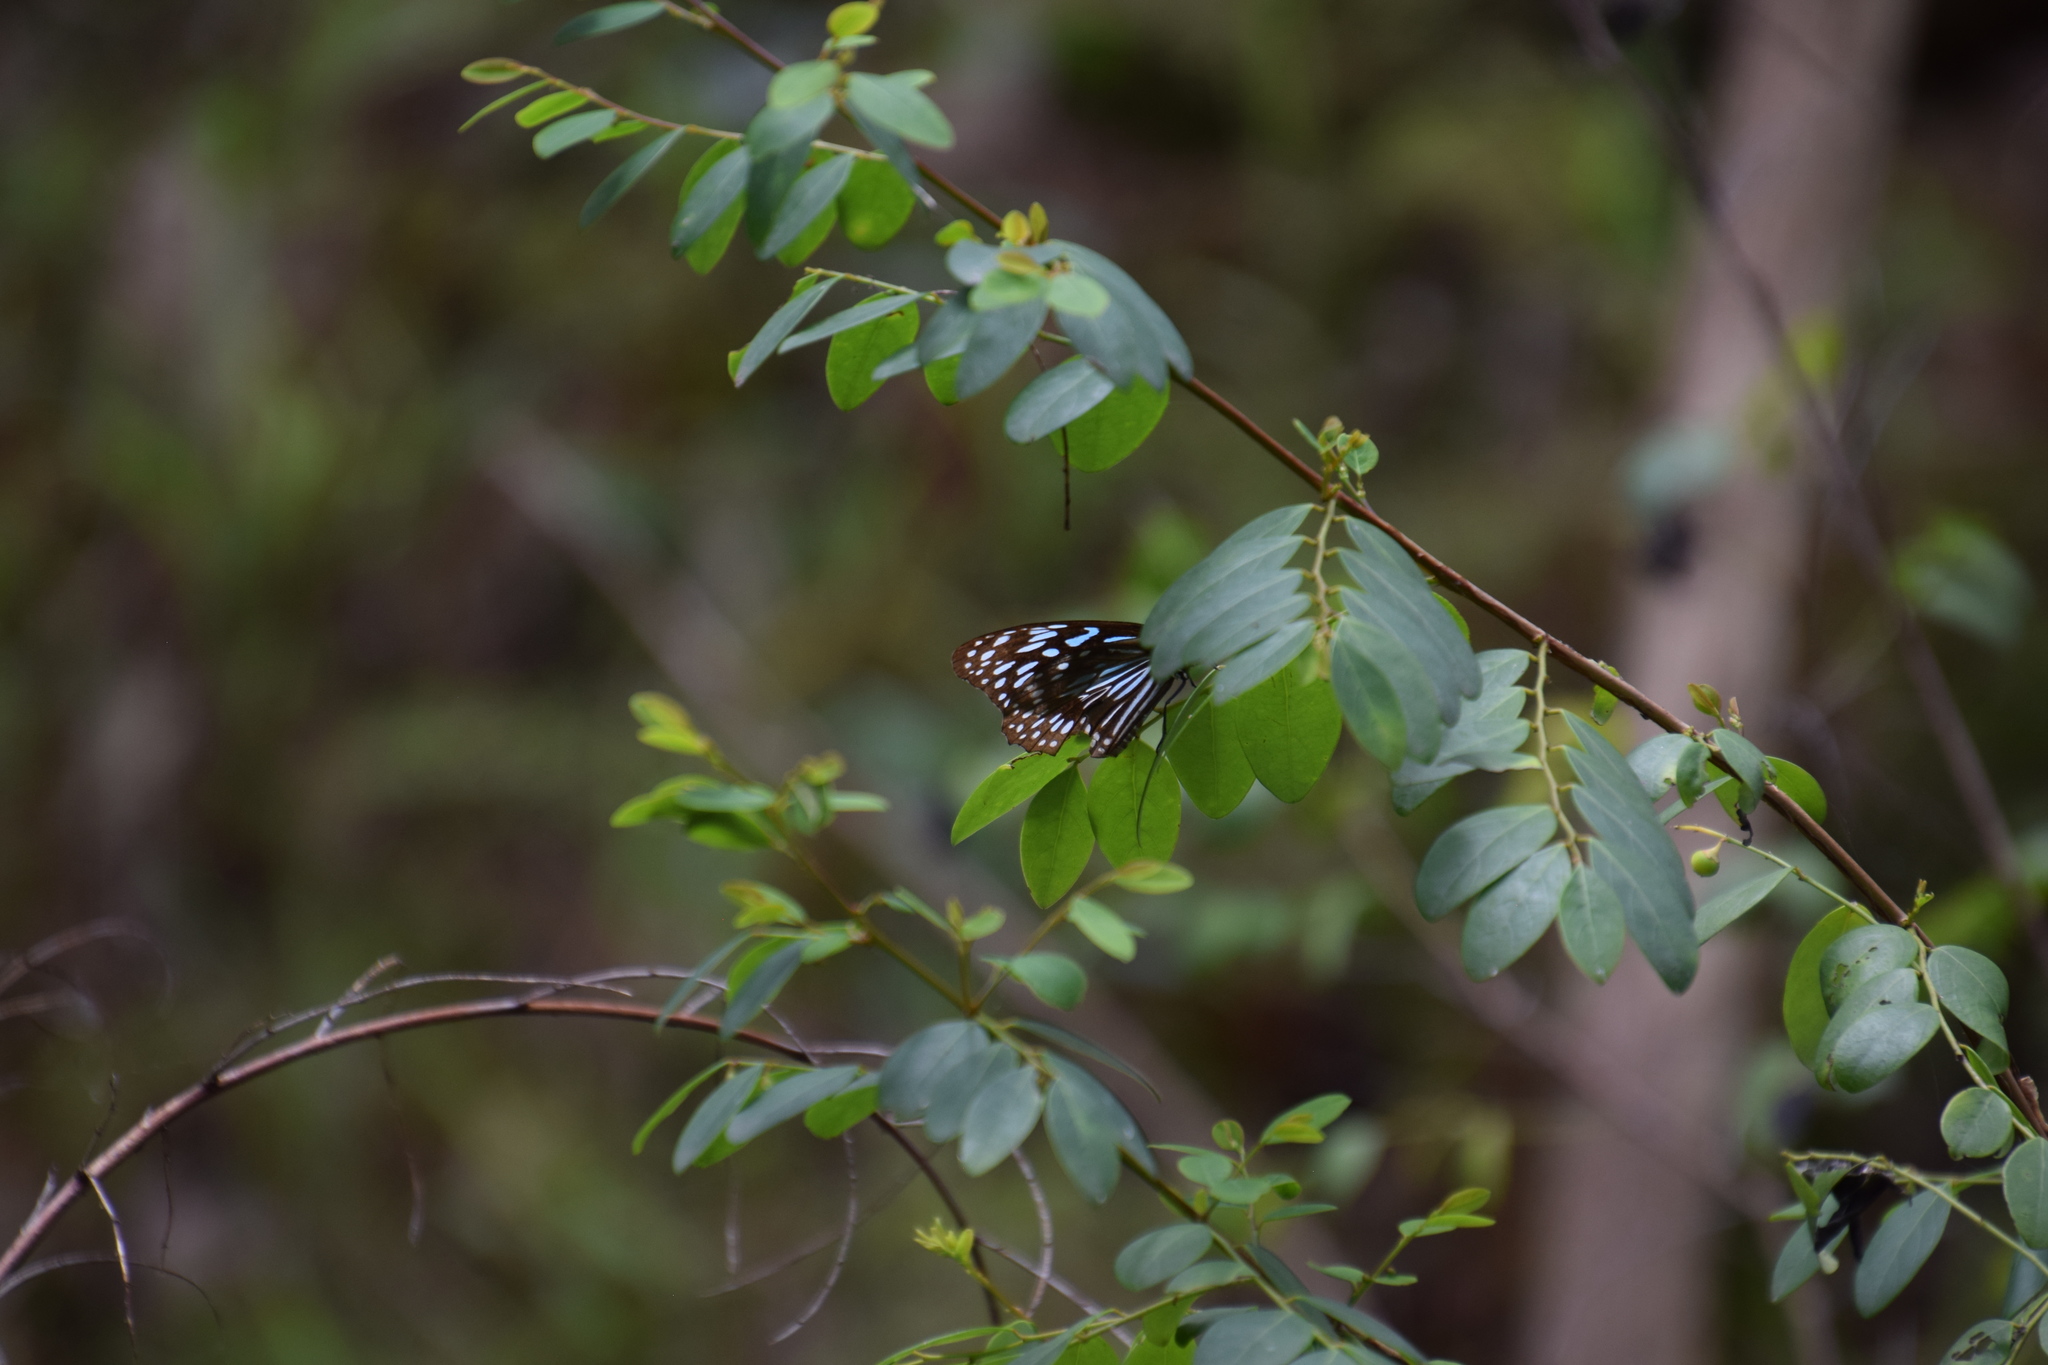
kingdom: Animalia
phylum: Arthropoda
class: Insecta
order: Lepidoptera
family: Nymphalidae
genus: Tirumala
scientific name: Tirumala hamata
